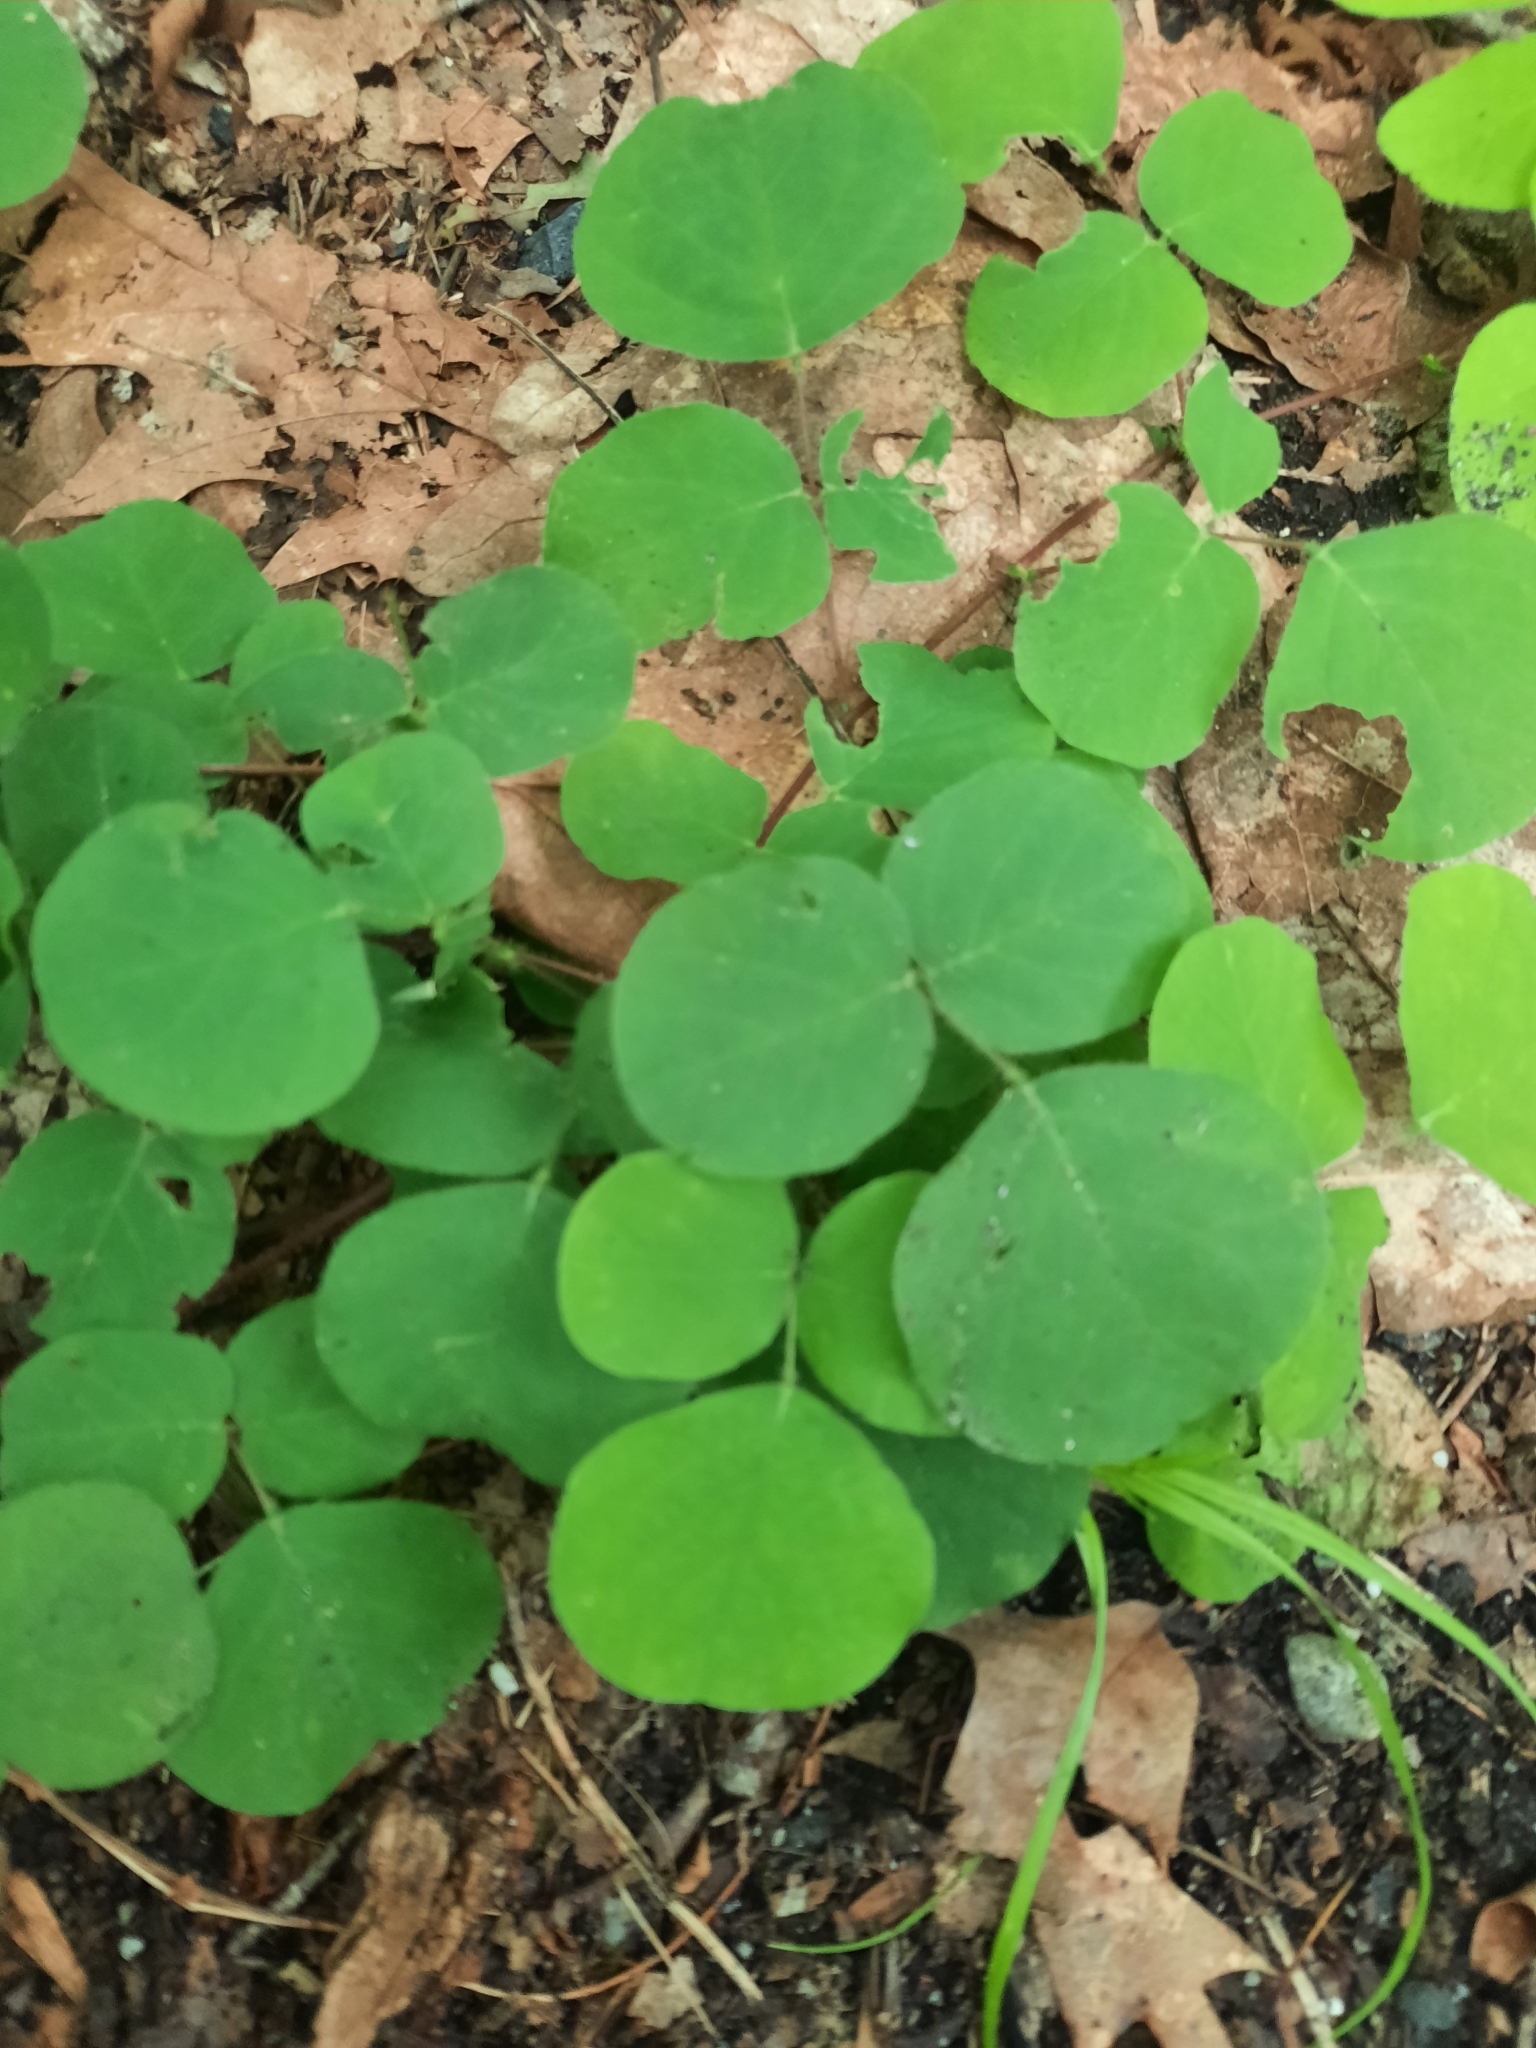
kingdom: Plantae
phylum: Tracheophyta
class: Magnoliopsida
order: Fabales
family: Fabaceae
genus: Desmodium
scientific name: Desmodium rotundifolium
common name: Dollarleaf
